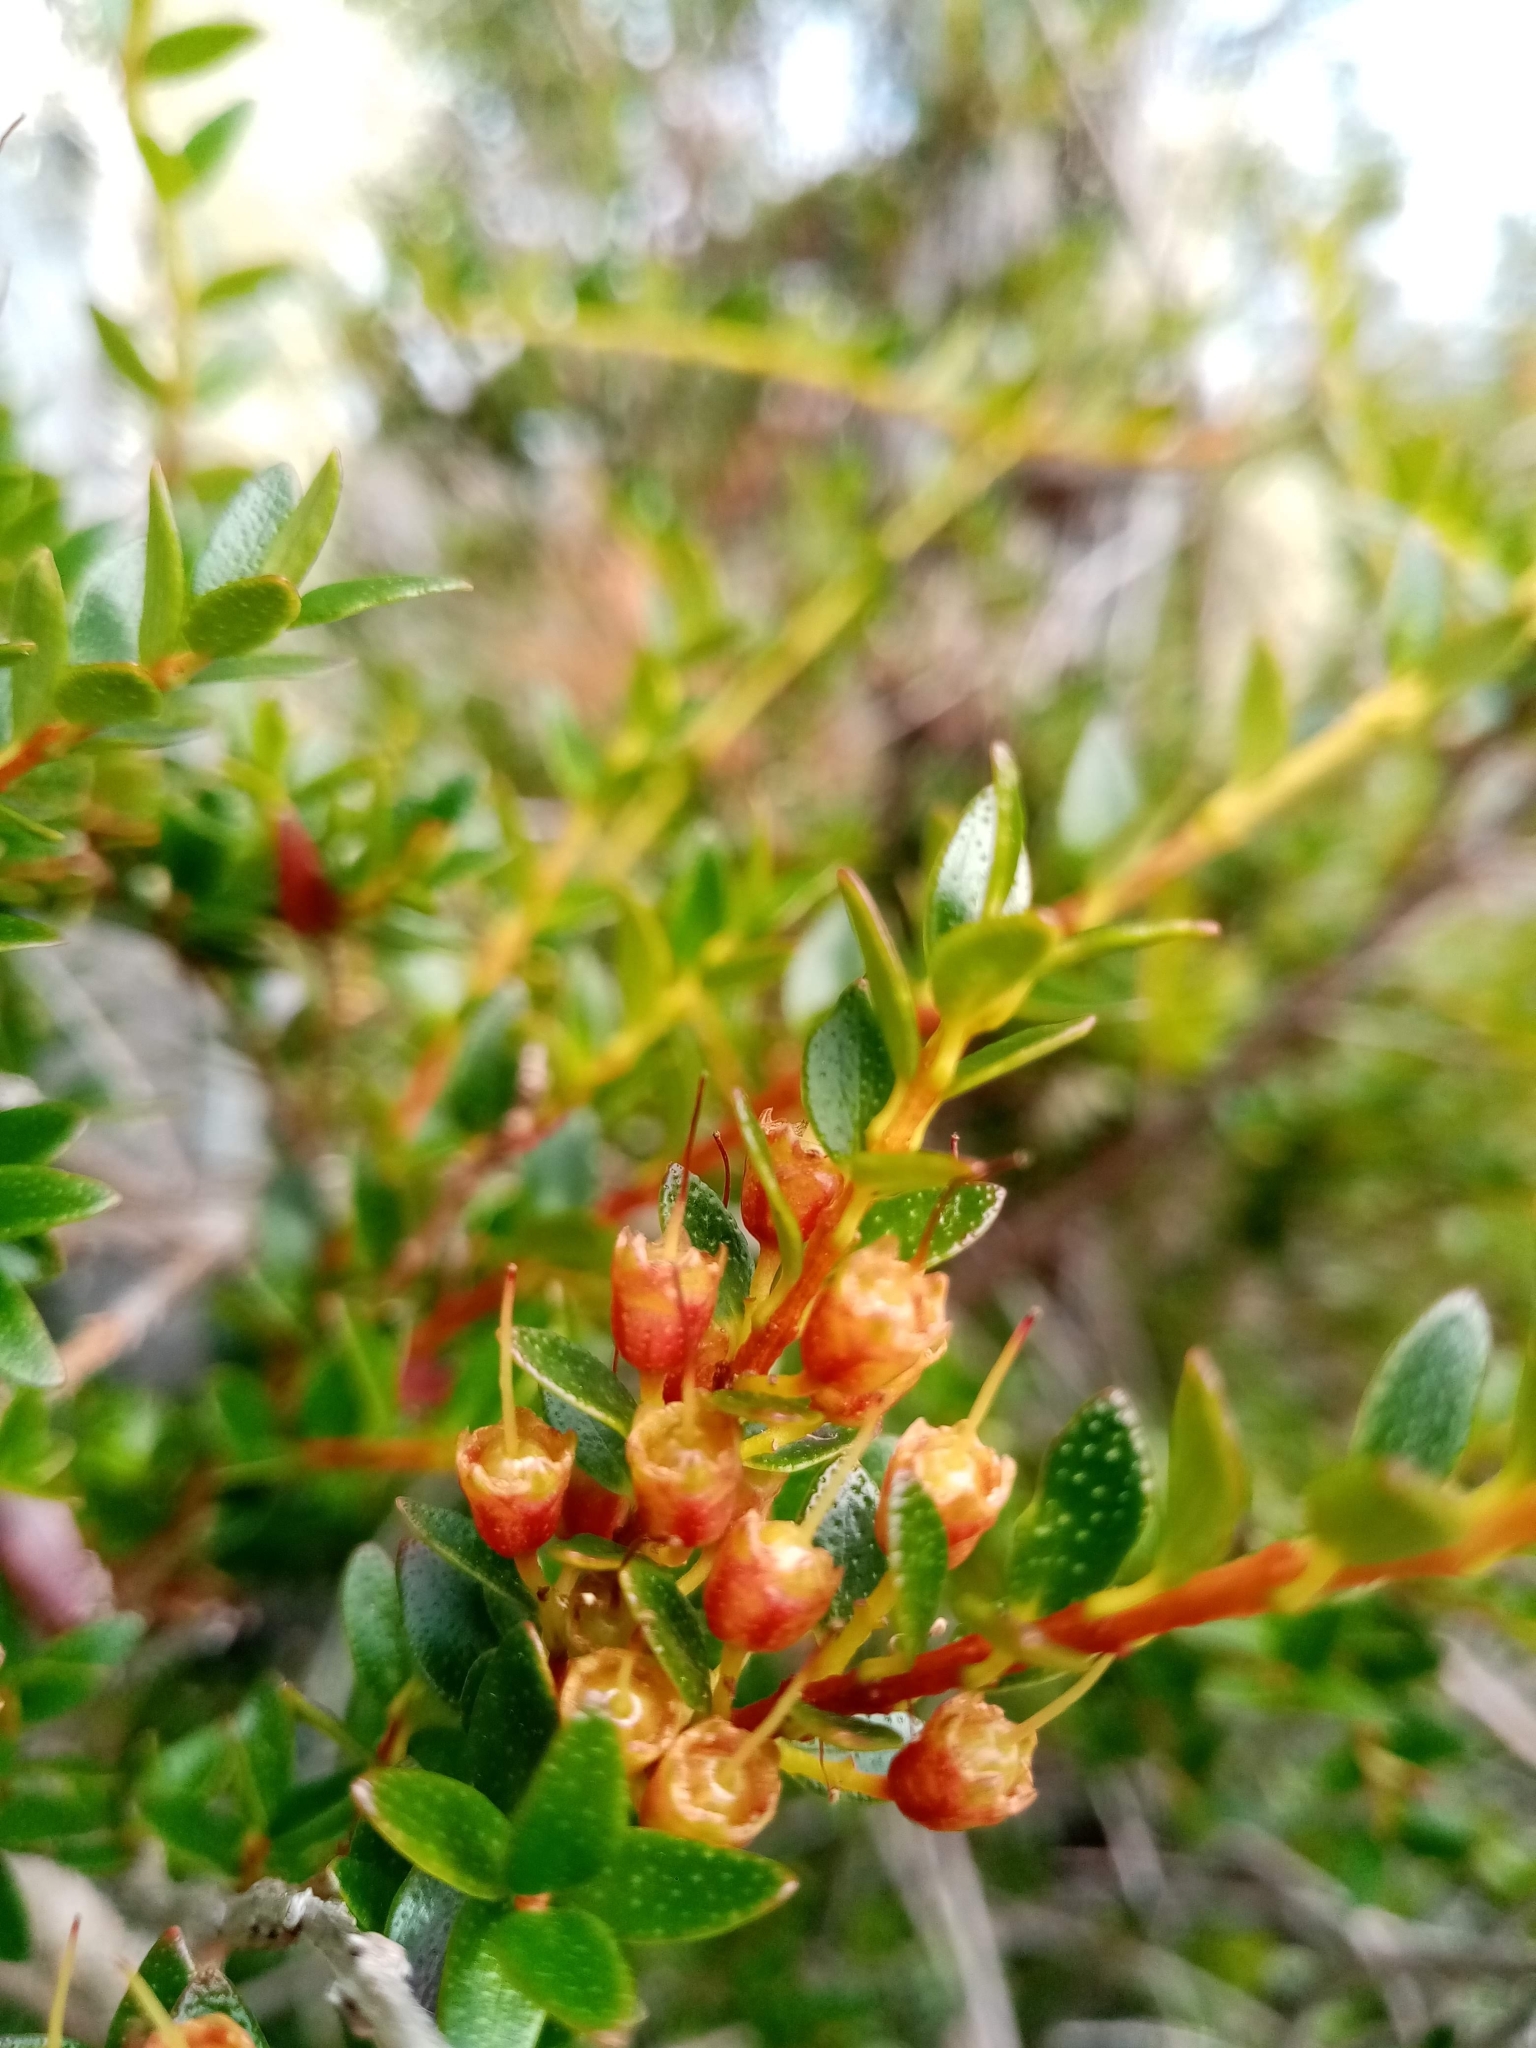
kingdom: Plantae
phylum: Tracheophyta
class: Magnoliopsida
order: Myrtales
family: Myrtaceae
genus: Tepualia
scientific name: Tepualia stipularis
